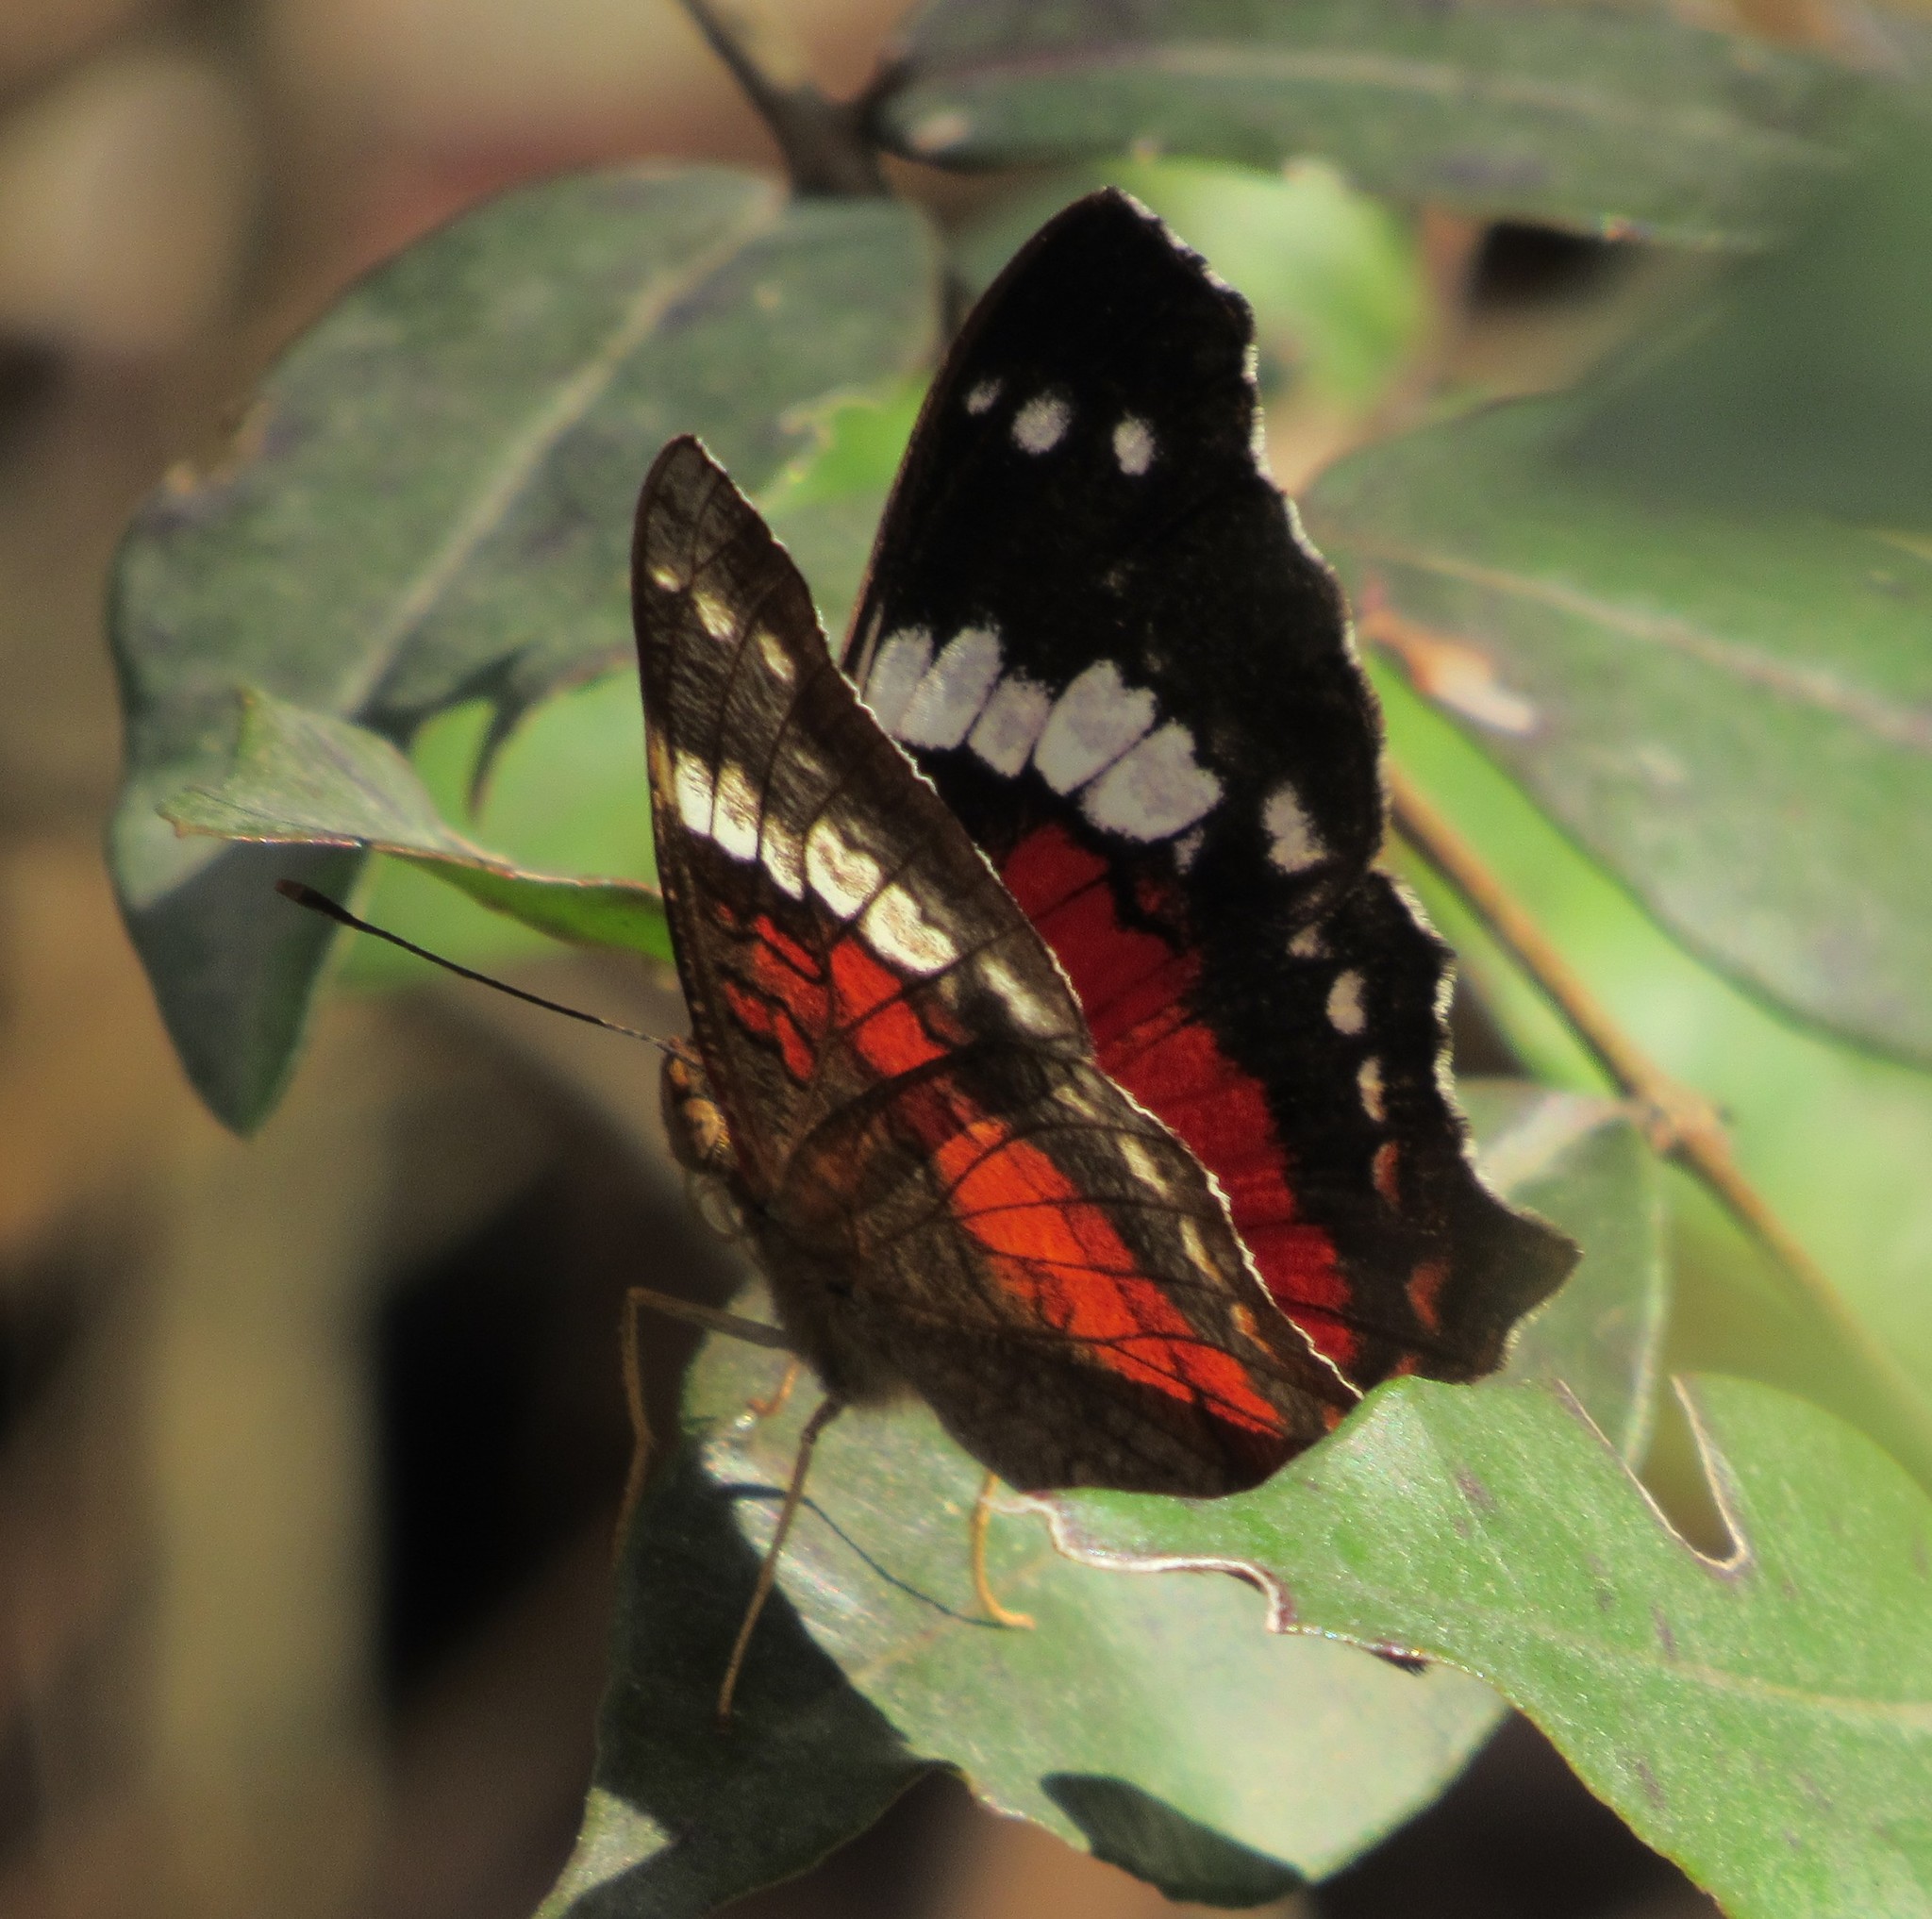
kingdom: Animalia
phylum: Arthropoda
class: Insecta
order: Lepidoptera
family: Nymphalidae
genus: Anartia
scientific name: Anartia amathea
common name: Red peacock
